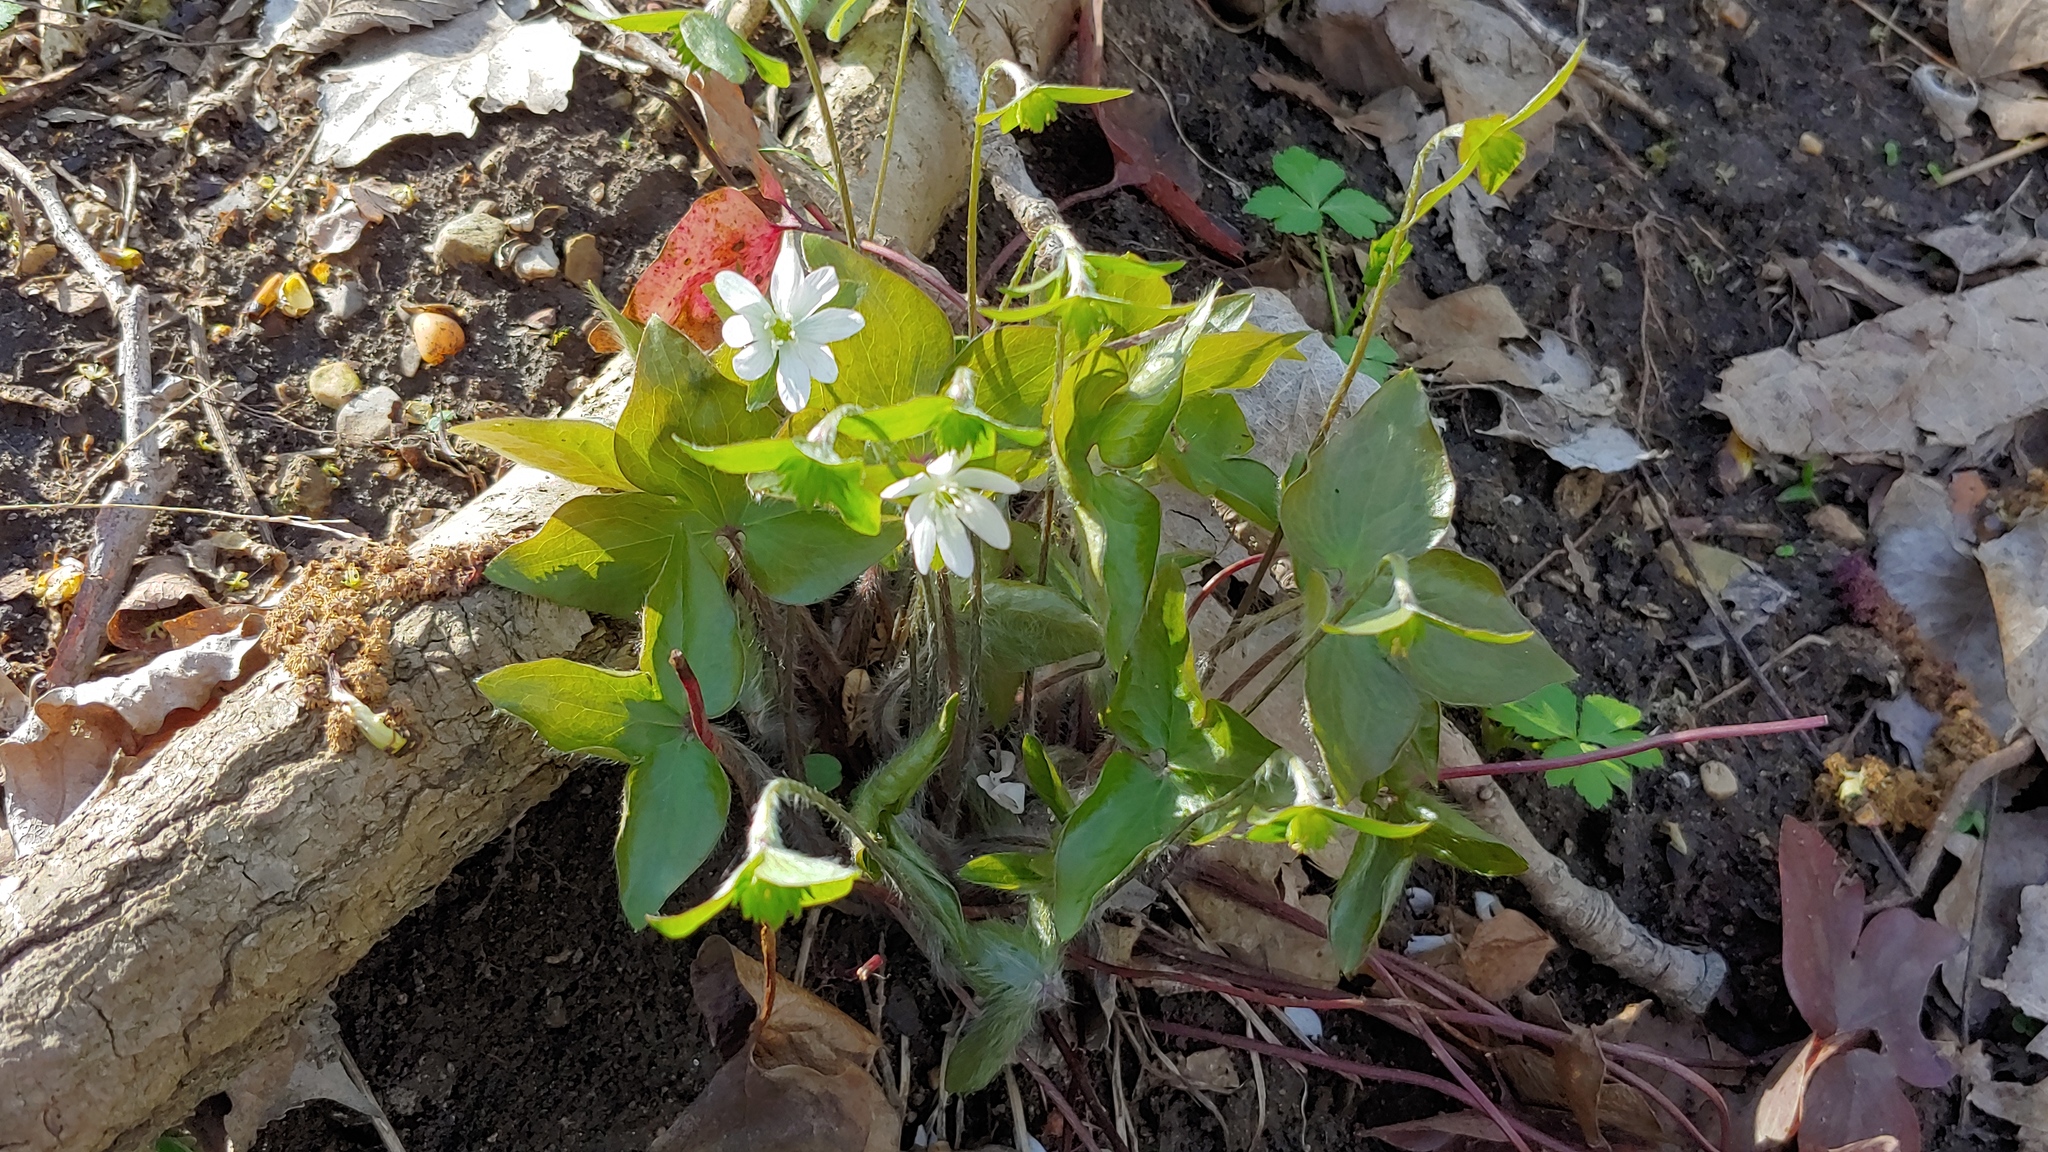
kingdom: Plantae
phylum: Tracheophyta
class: Magnoliopsida
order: Ranunculales
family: Ranunculaceae
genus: Hepatica
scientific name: Hepatica acutiloba
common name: Sharp-lobed hepatica
